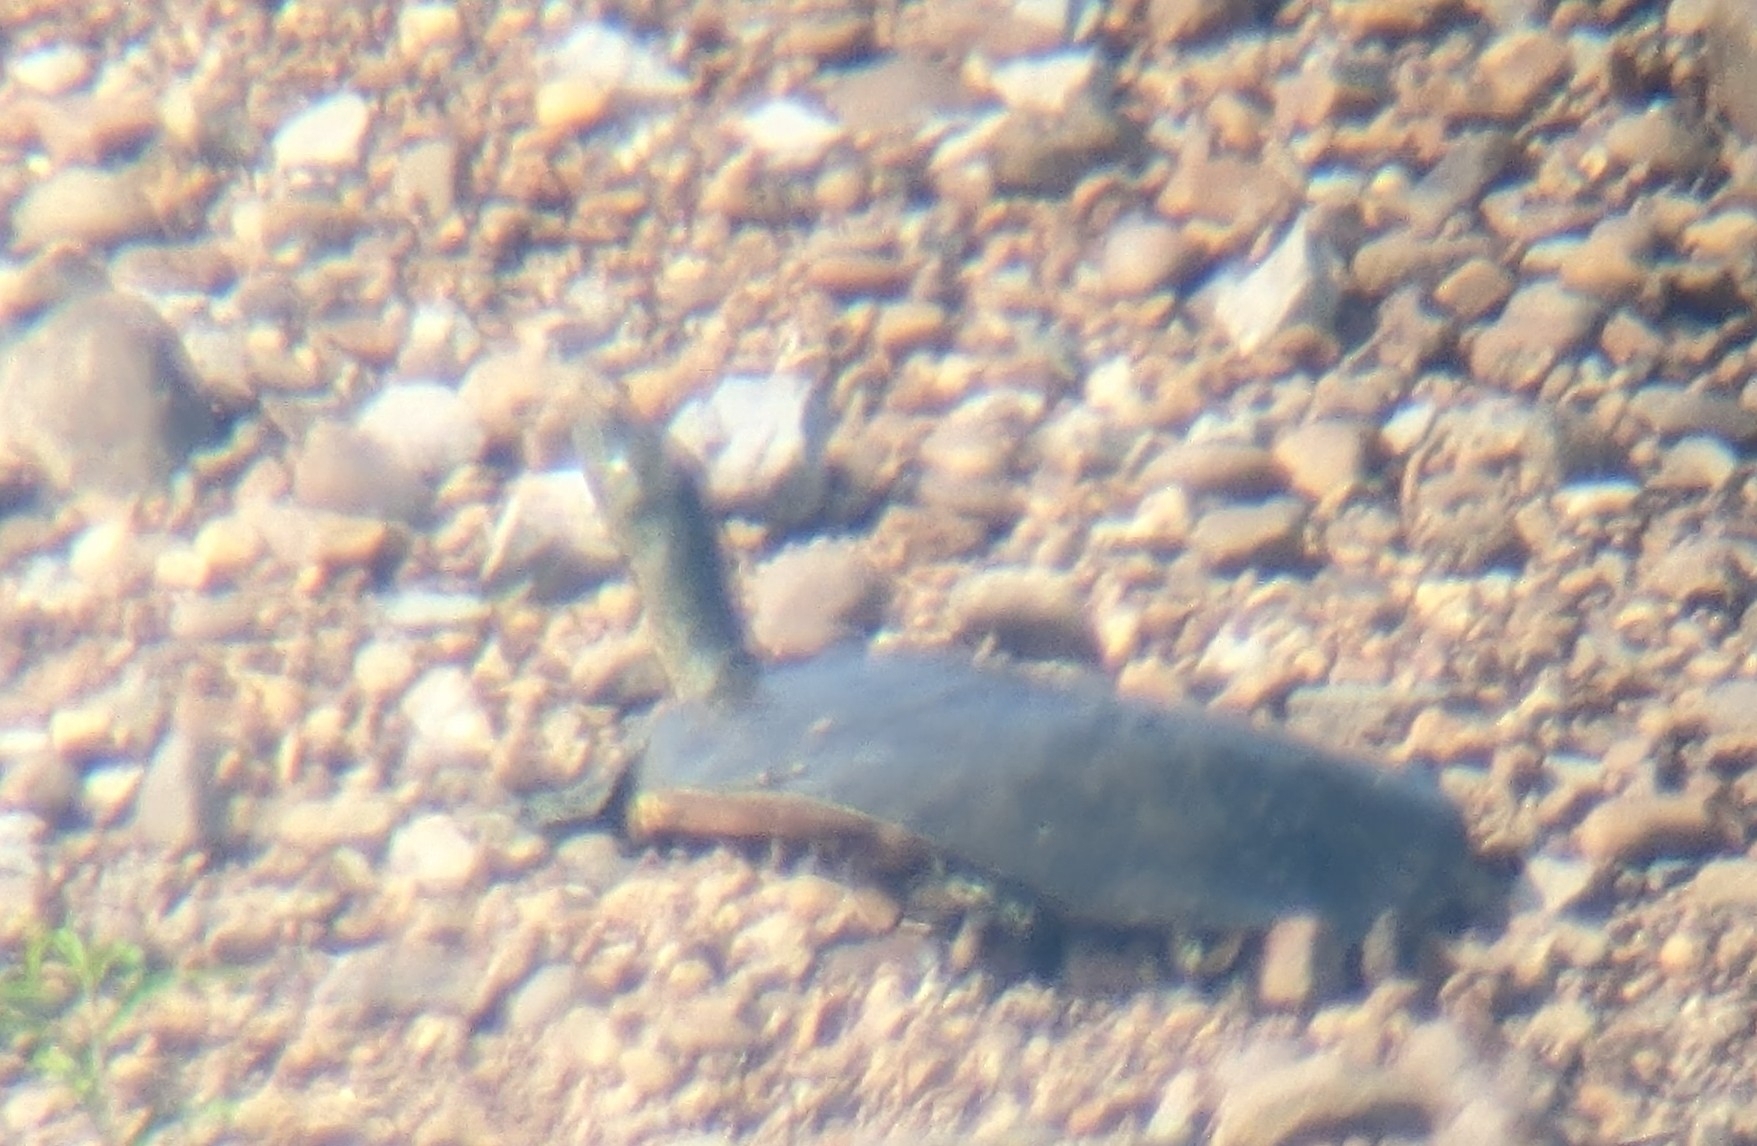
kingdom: Animalia
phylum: Chordata
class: Testudines
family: Trionychidae
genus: Apalone
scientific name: Apalone spinifera
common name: Spiny softshell turtle
